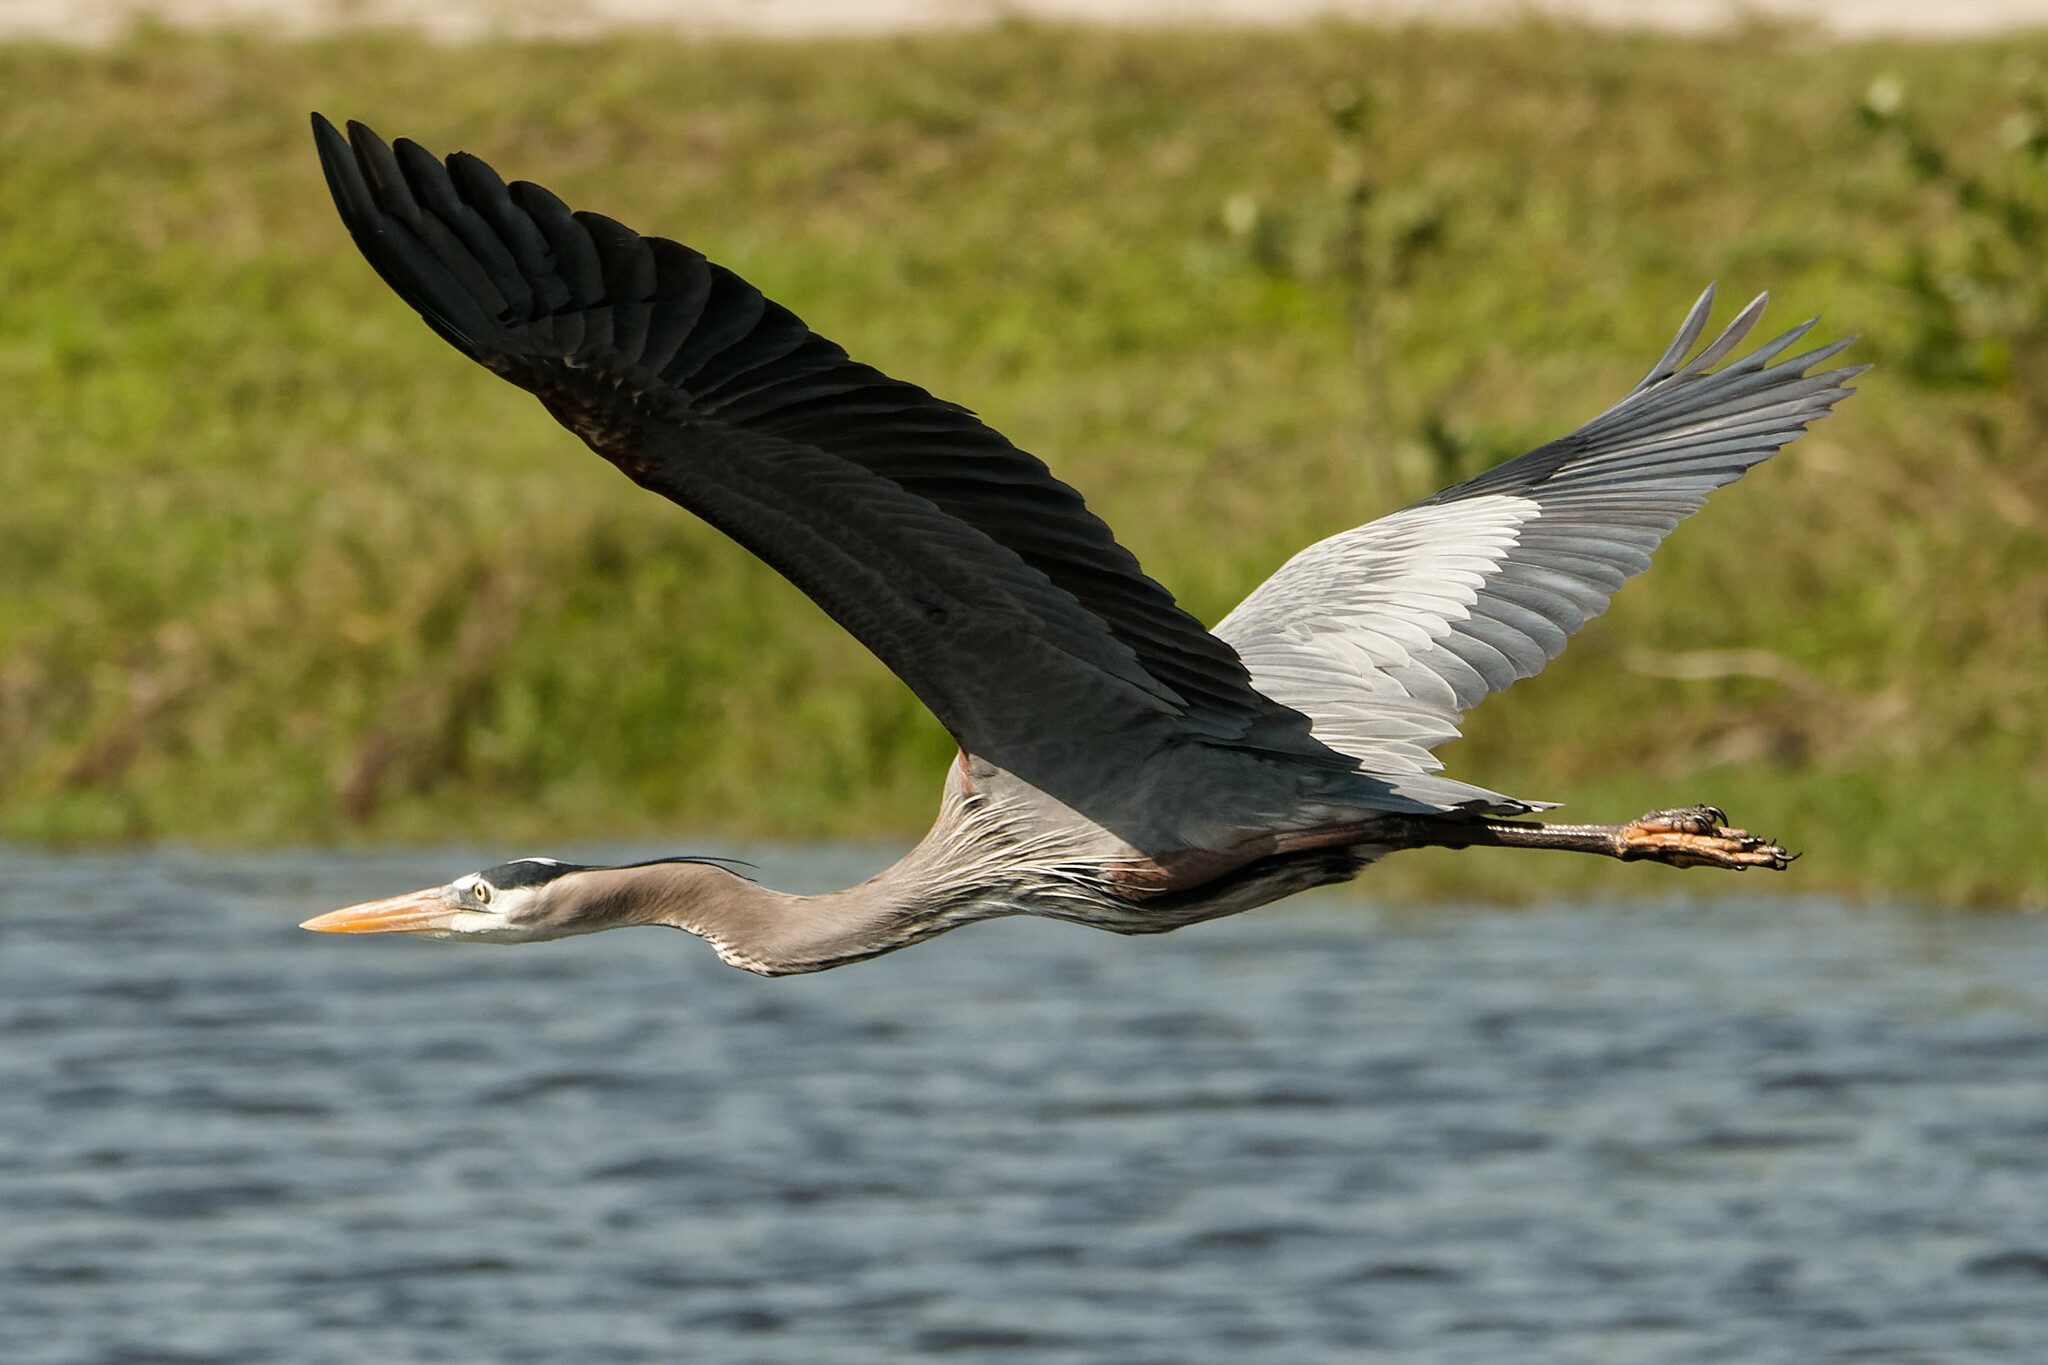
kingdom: Animalia
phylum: Chordata
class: Aves
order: Pelecaniformes
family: Ardeidae
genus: Ardea
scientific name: Ardea herodias
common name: Great blue heron
